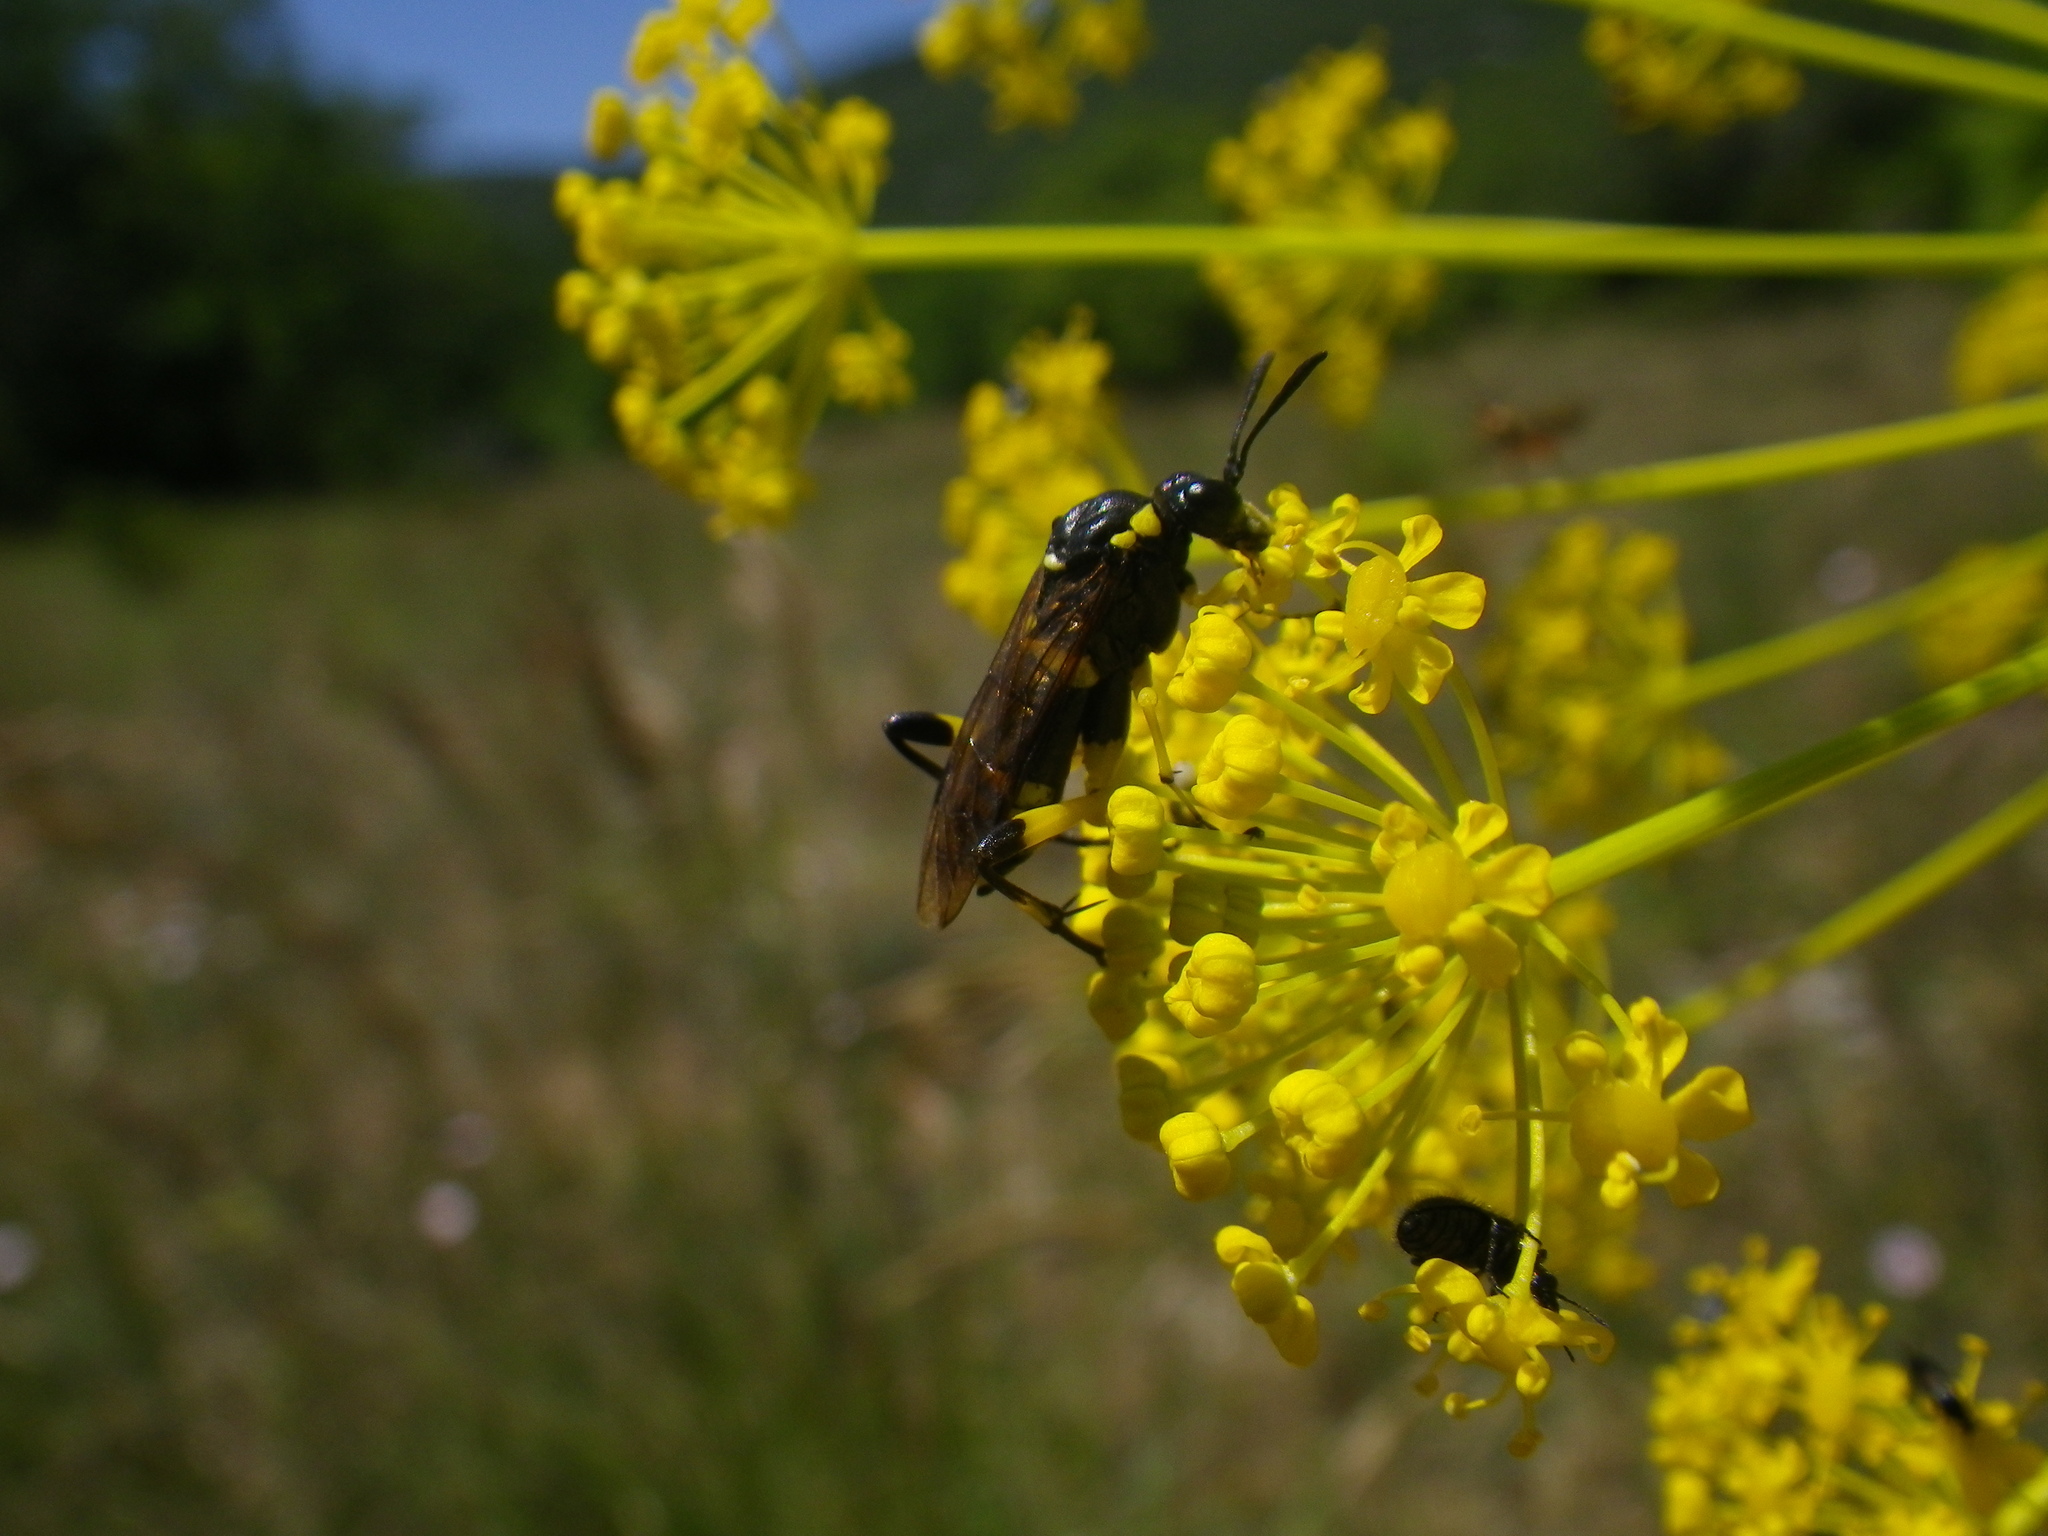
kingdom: Animalia
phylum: Arthropoda
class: Insecta
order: Hymenoptera
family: Tenthredinidae
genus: Macrophya
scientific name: Macrophya montana
